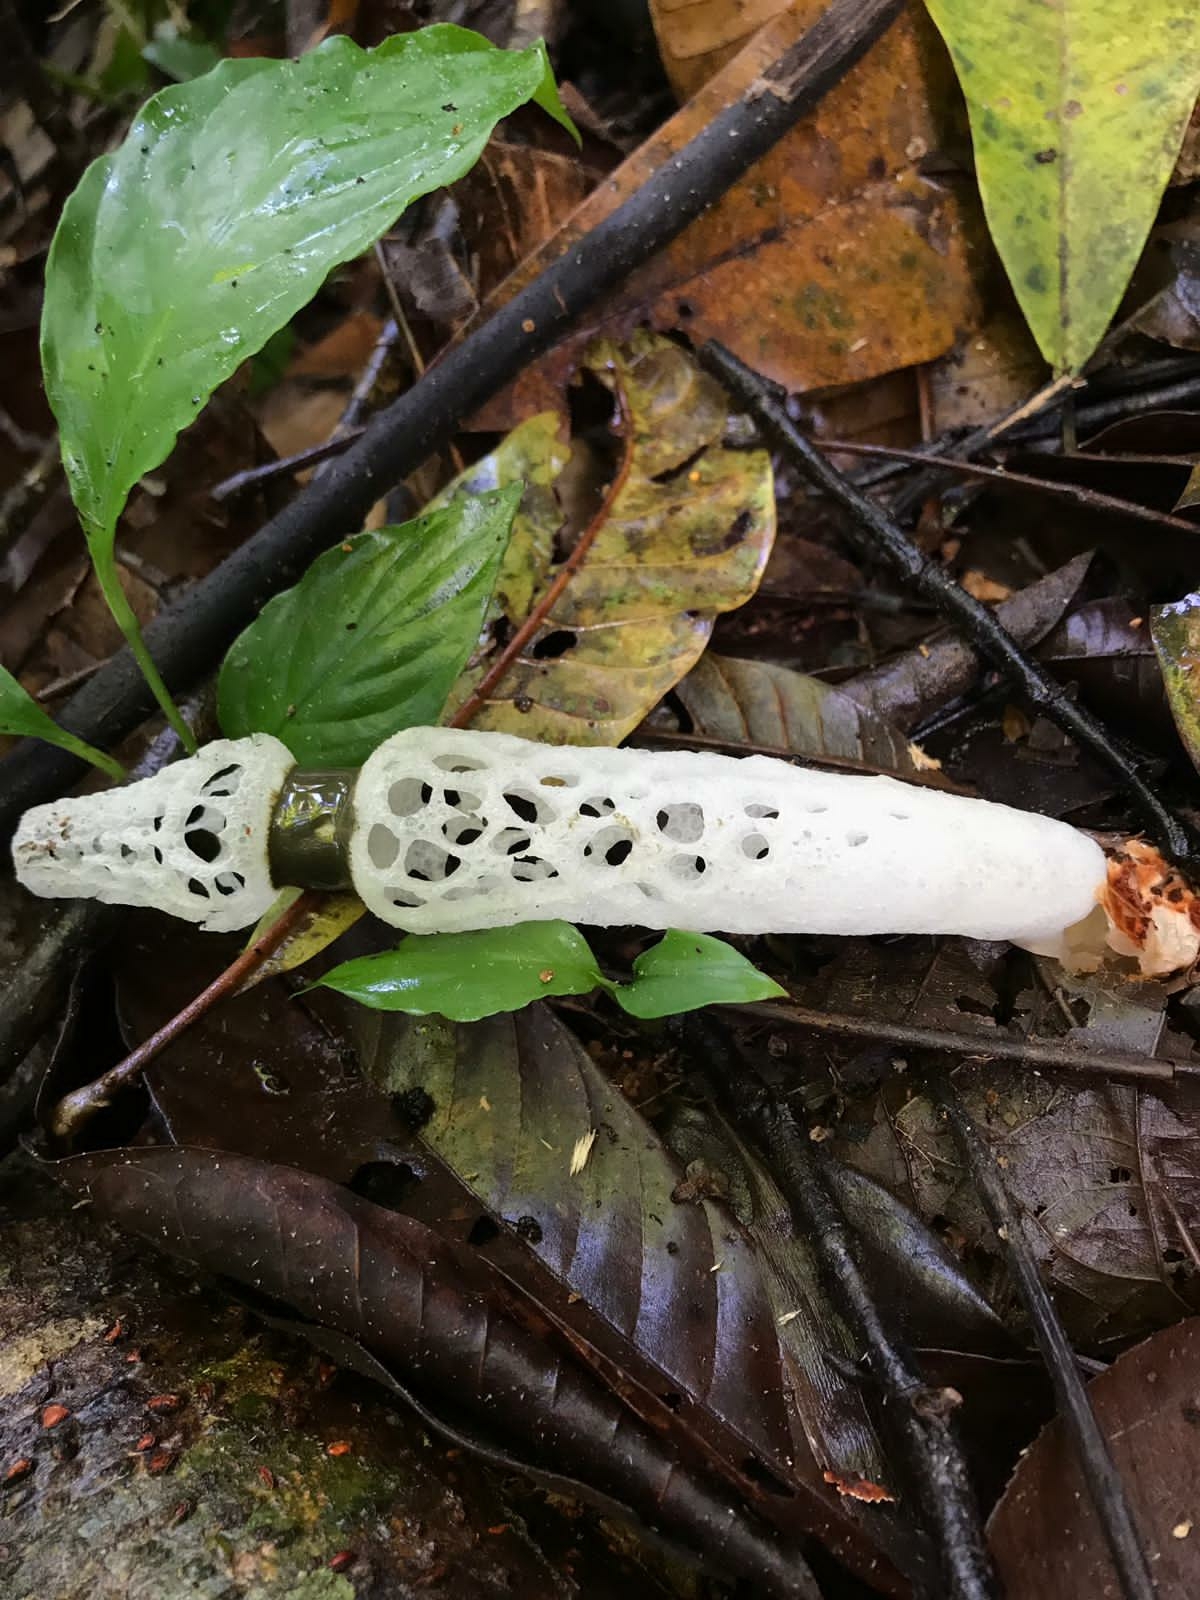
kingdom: Fungi
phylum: Basidiomycota
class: Agaricomycetes
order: Phallales
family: Phallaceae
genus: Staheliomyces
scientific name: Staheliomyces cinctus
